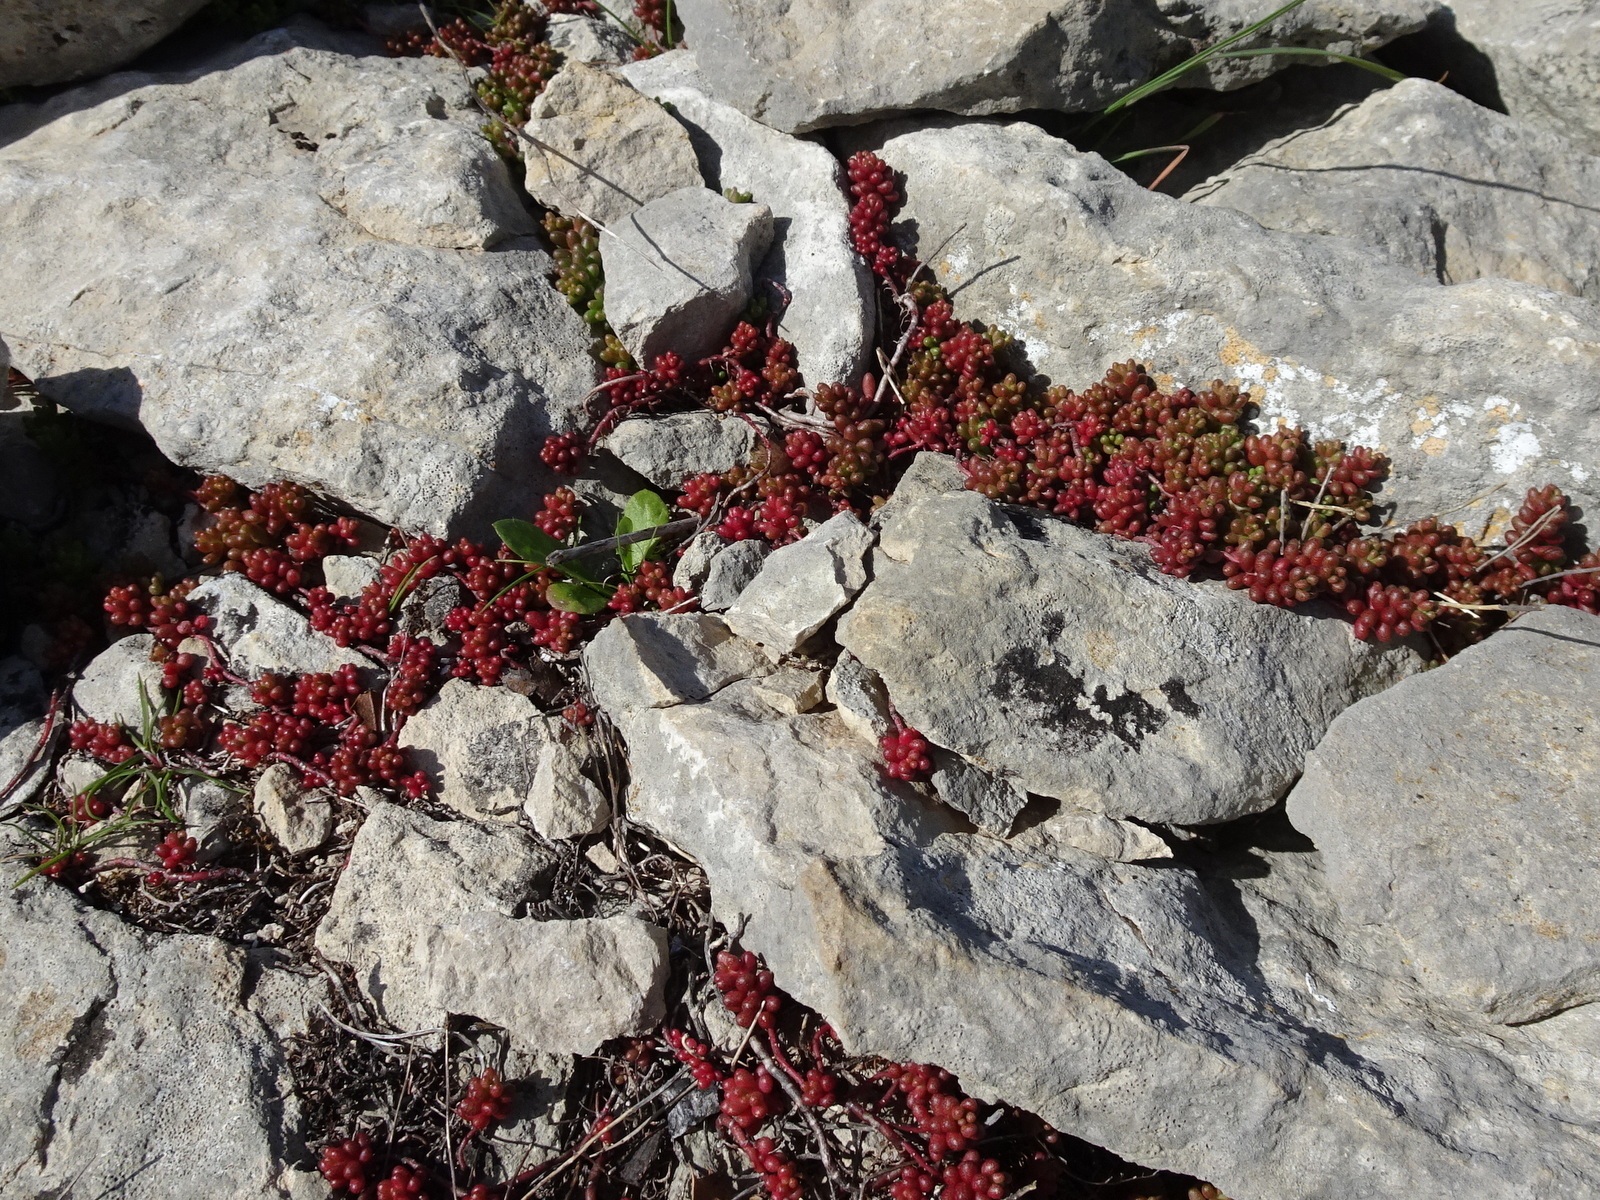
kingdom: Plantae
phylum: Tracheophyta
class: Magnoliopsida
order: Saxifragales
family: Crassulaceae
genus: Sedum
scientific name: Sedum album
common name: White stonecrop
